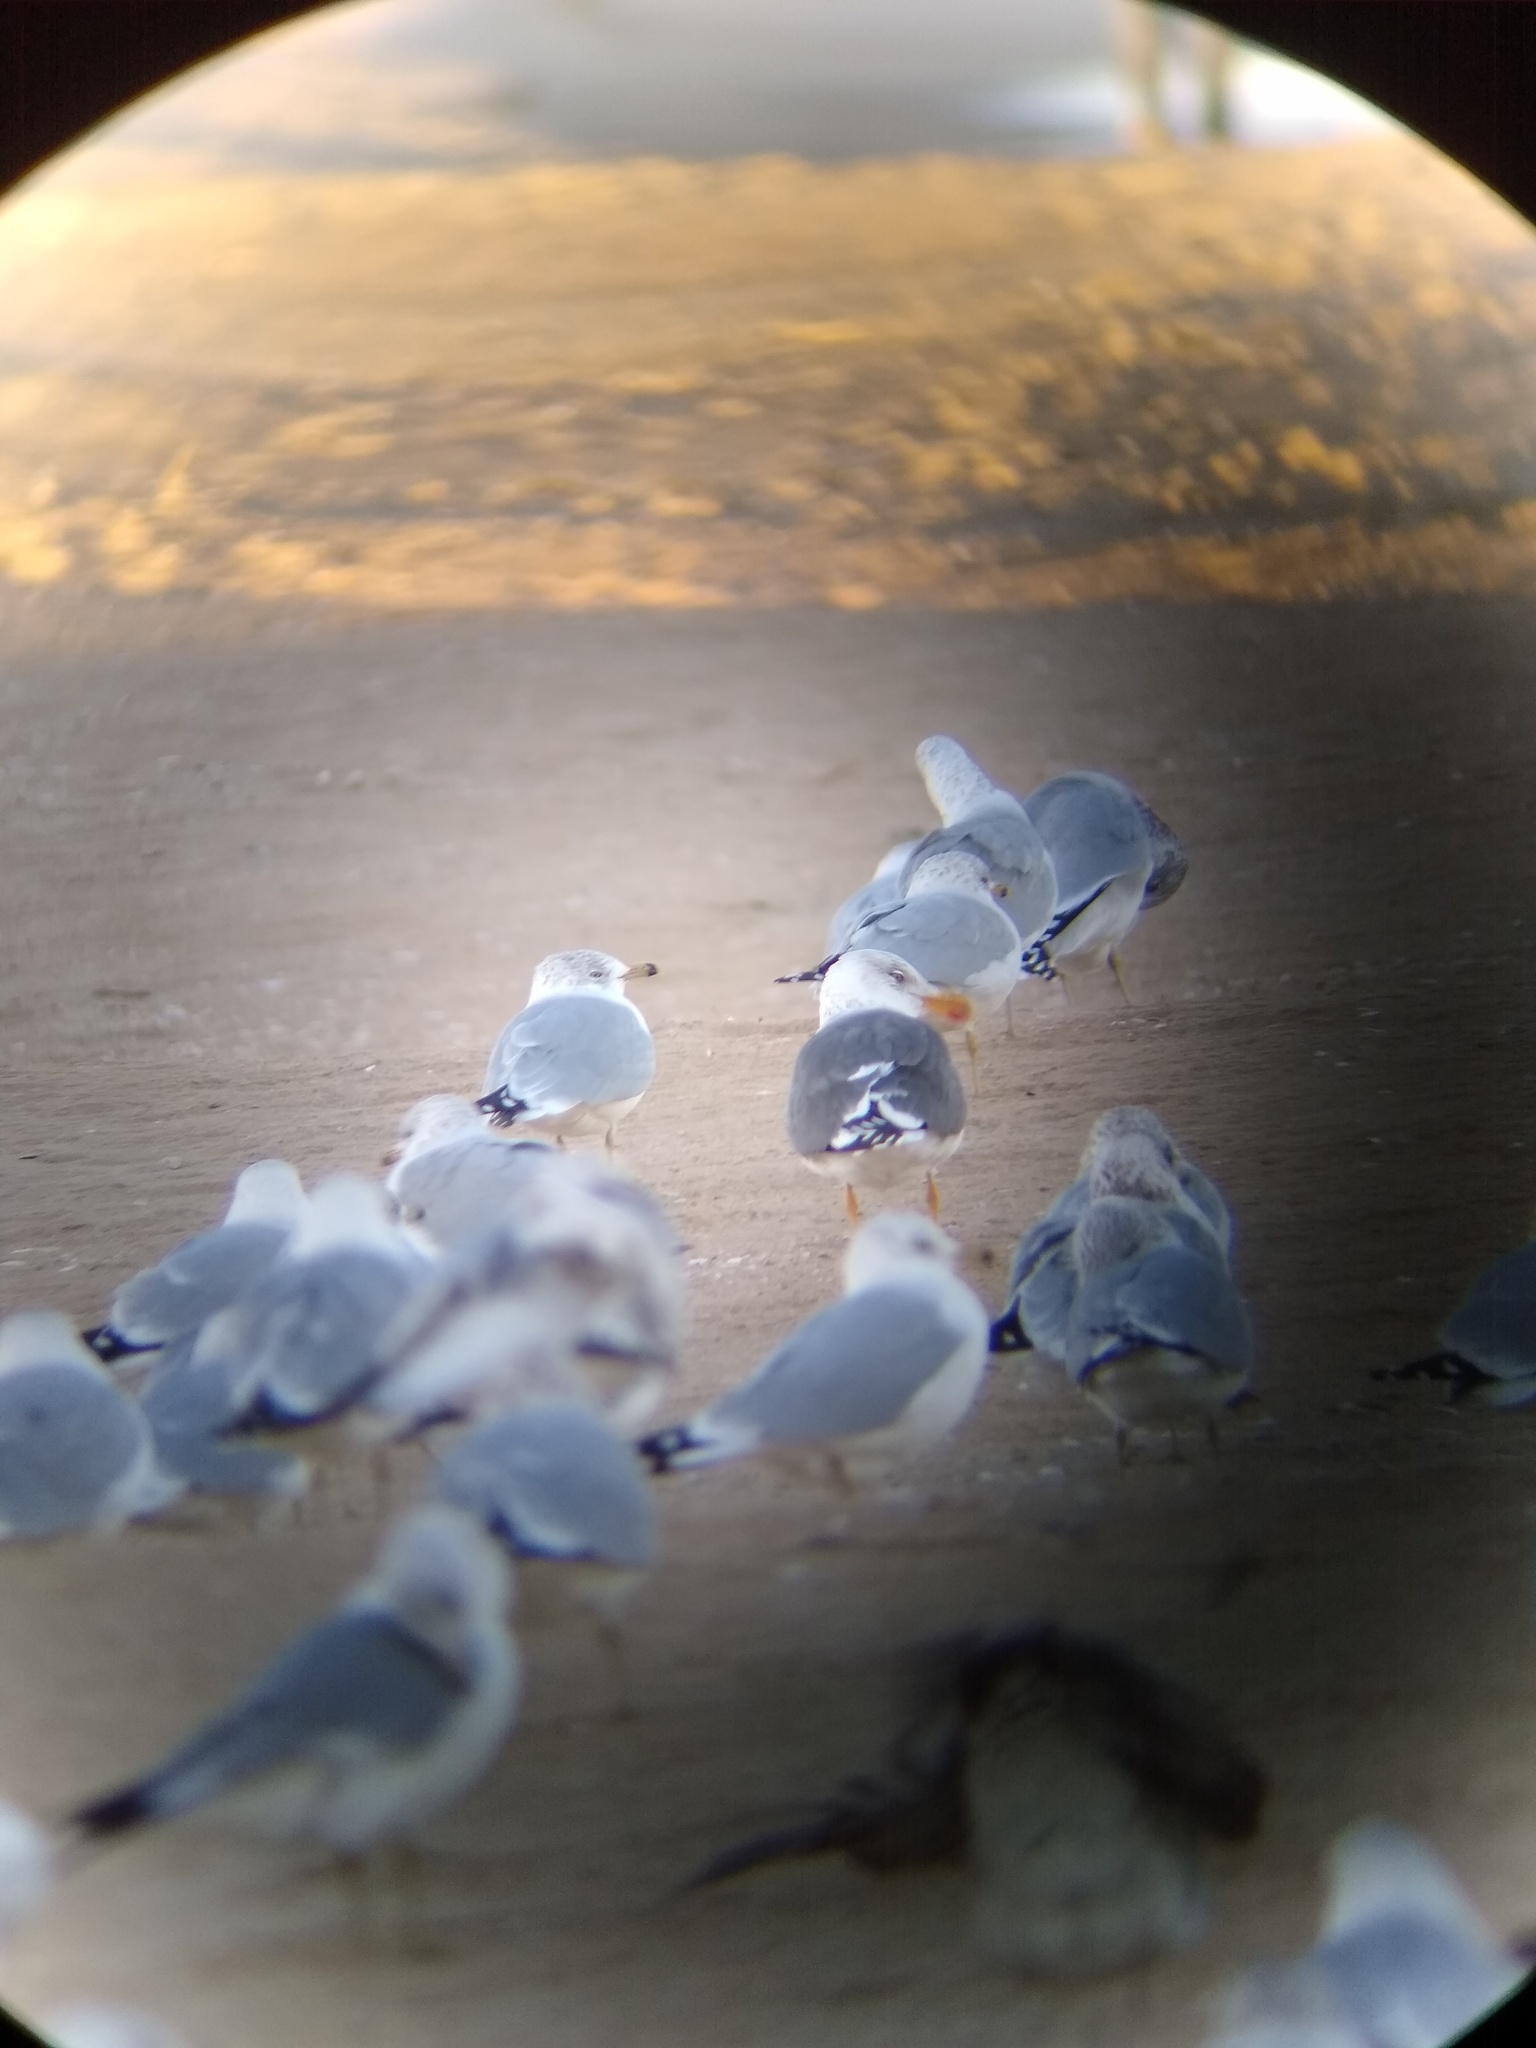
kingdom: Animalia
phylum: Chordata
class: Aves
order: Charadriiformes
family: Laridae
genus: Larus
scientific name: Larus fuscus
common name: Lesser black-backed gull
